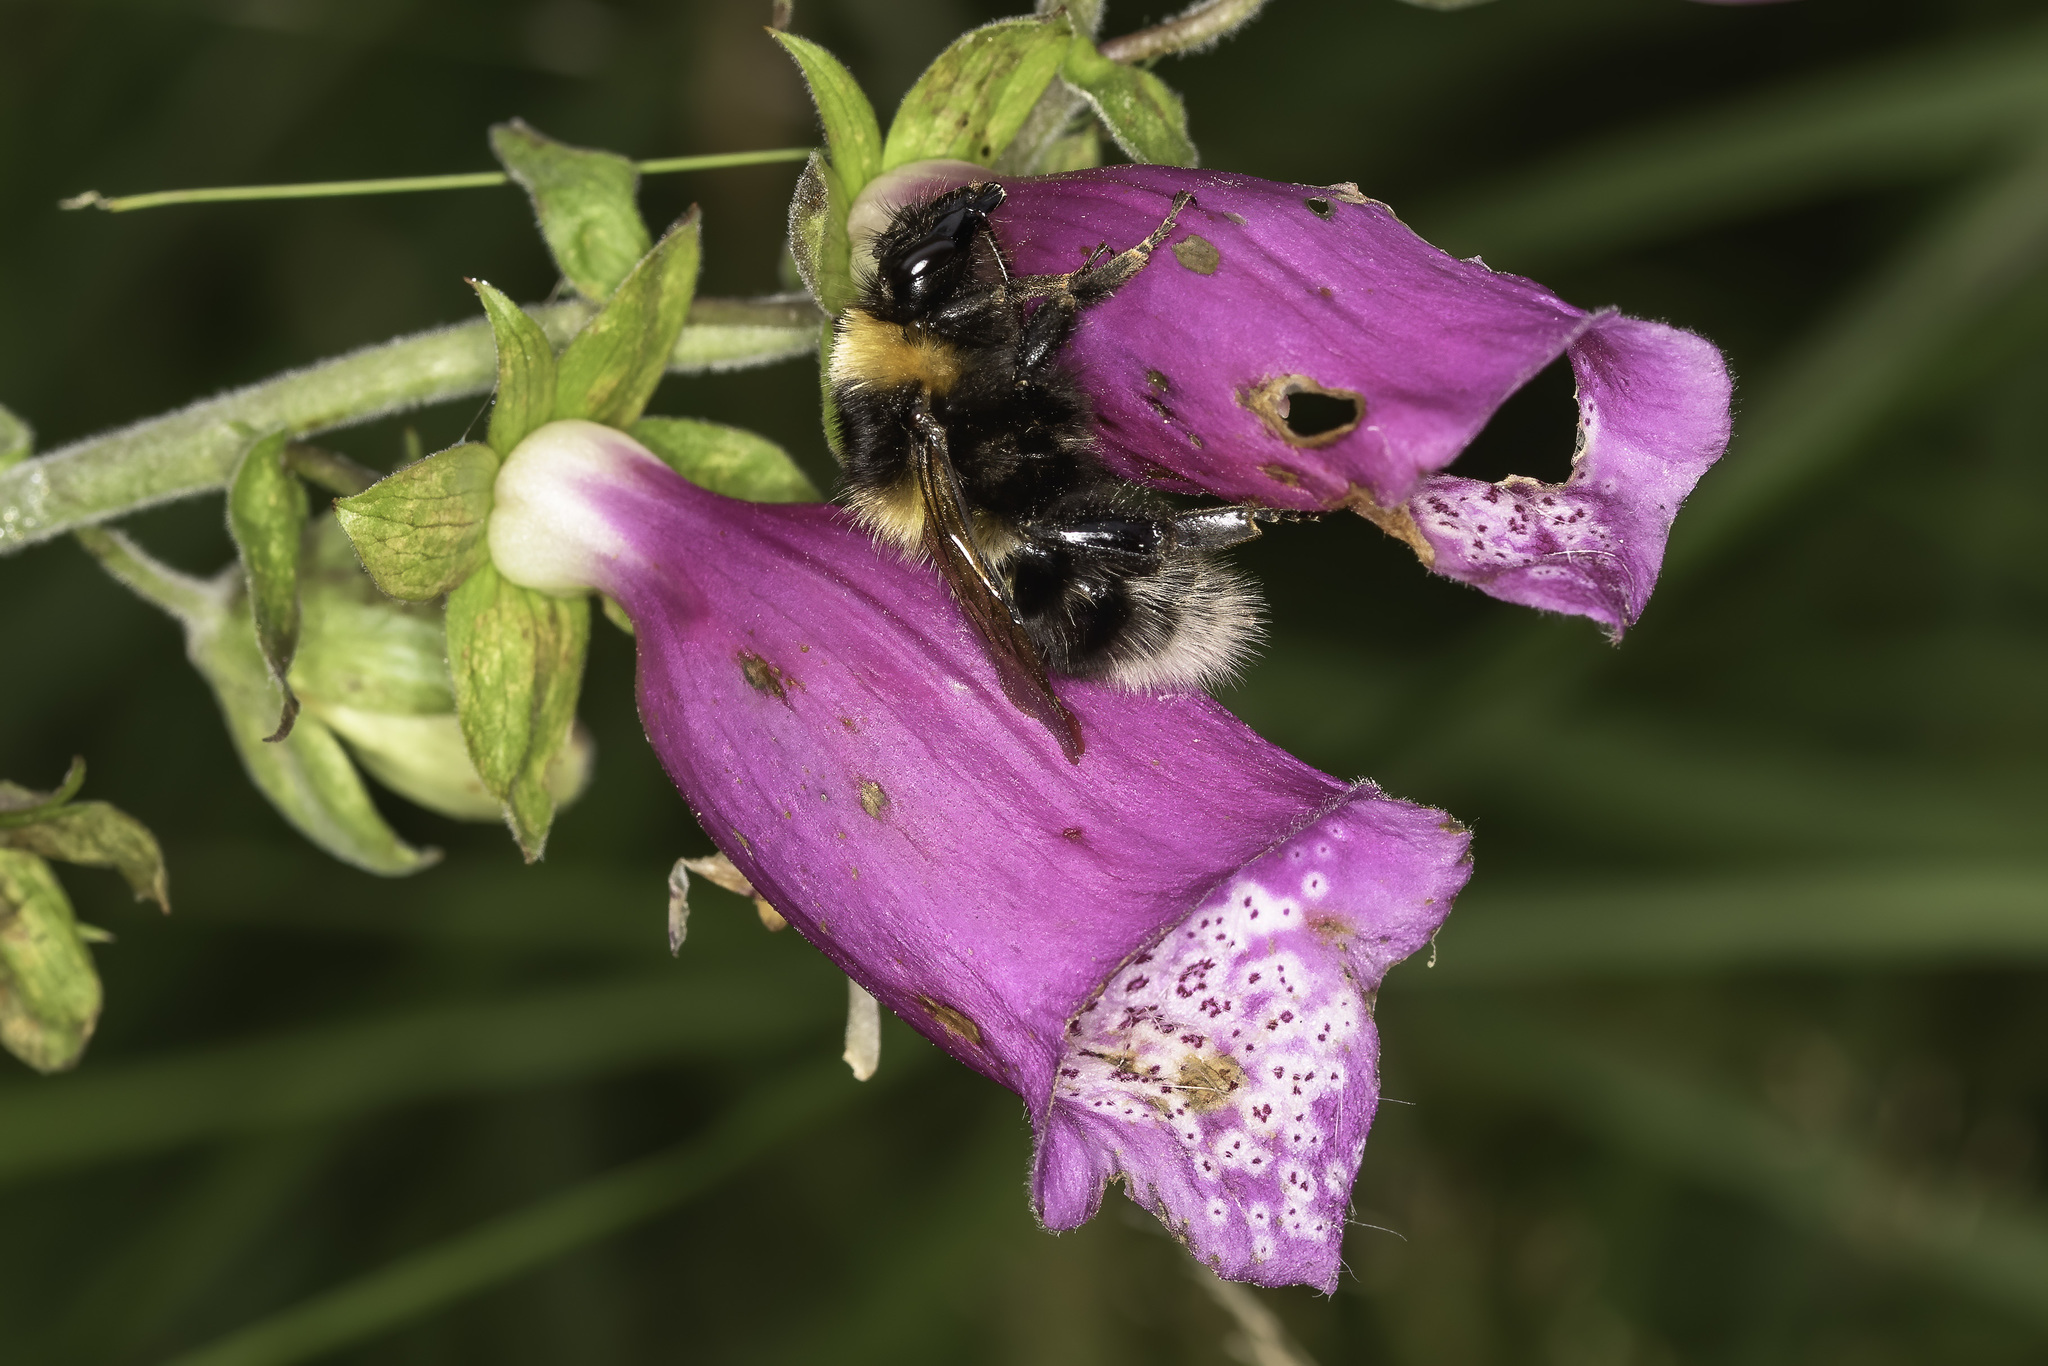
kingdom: Animalia
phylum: Arthropoda
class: Insecta
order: Hymenoptera
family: Apidae
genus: Bombus
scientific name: Bombus hortorum
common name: Garden bumblebee
